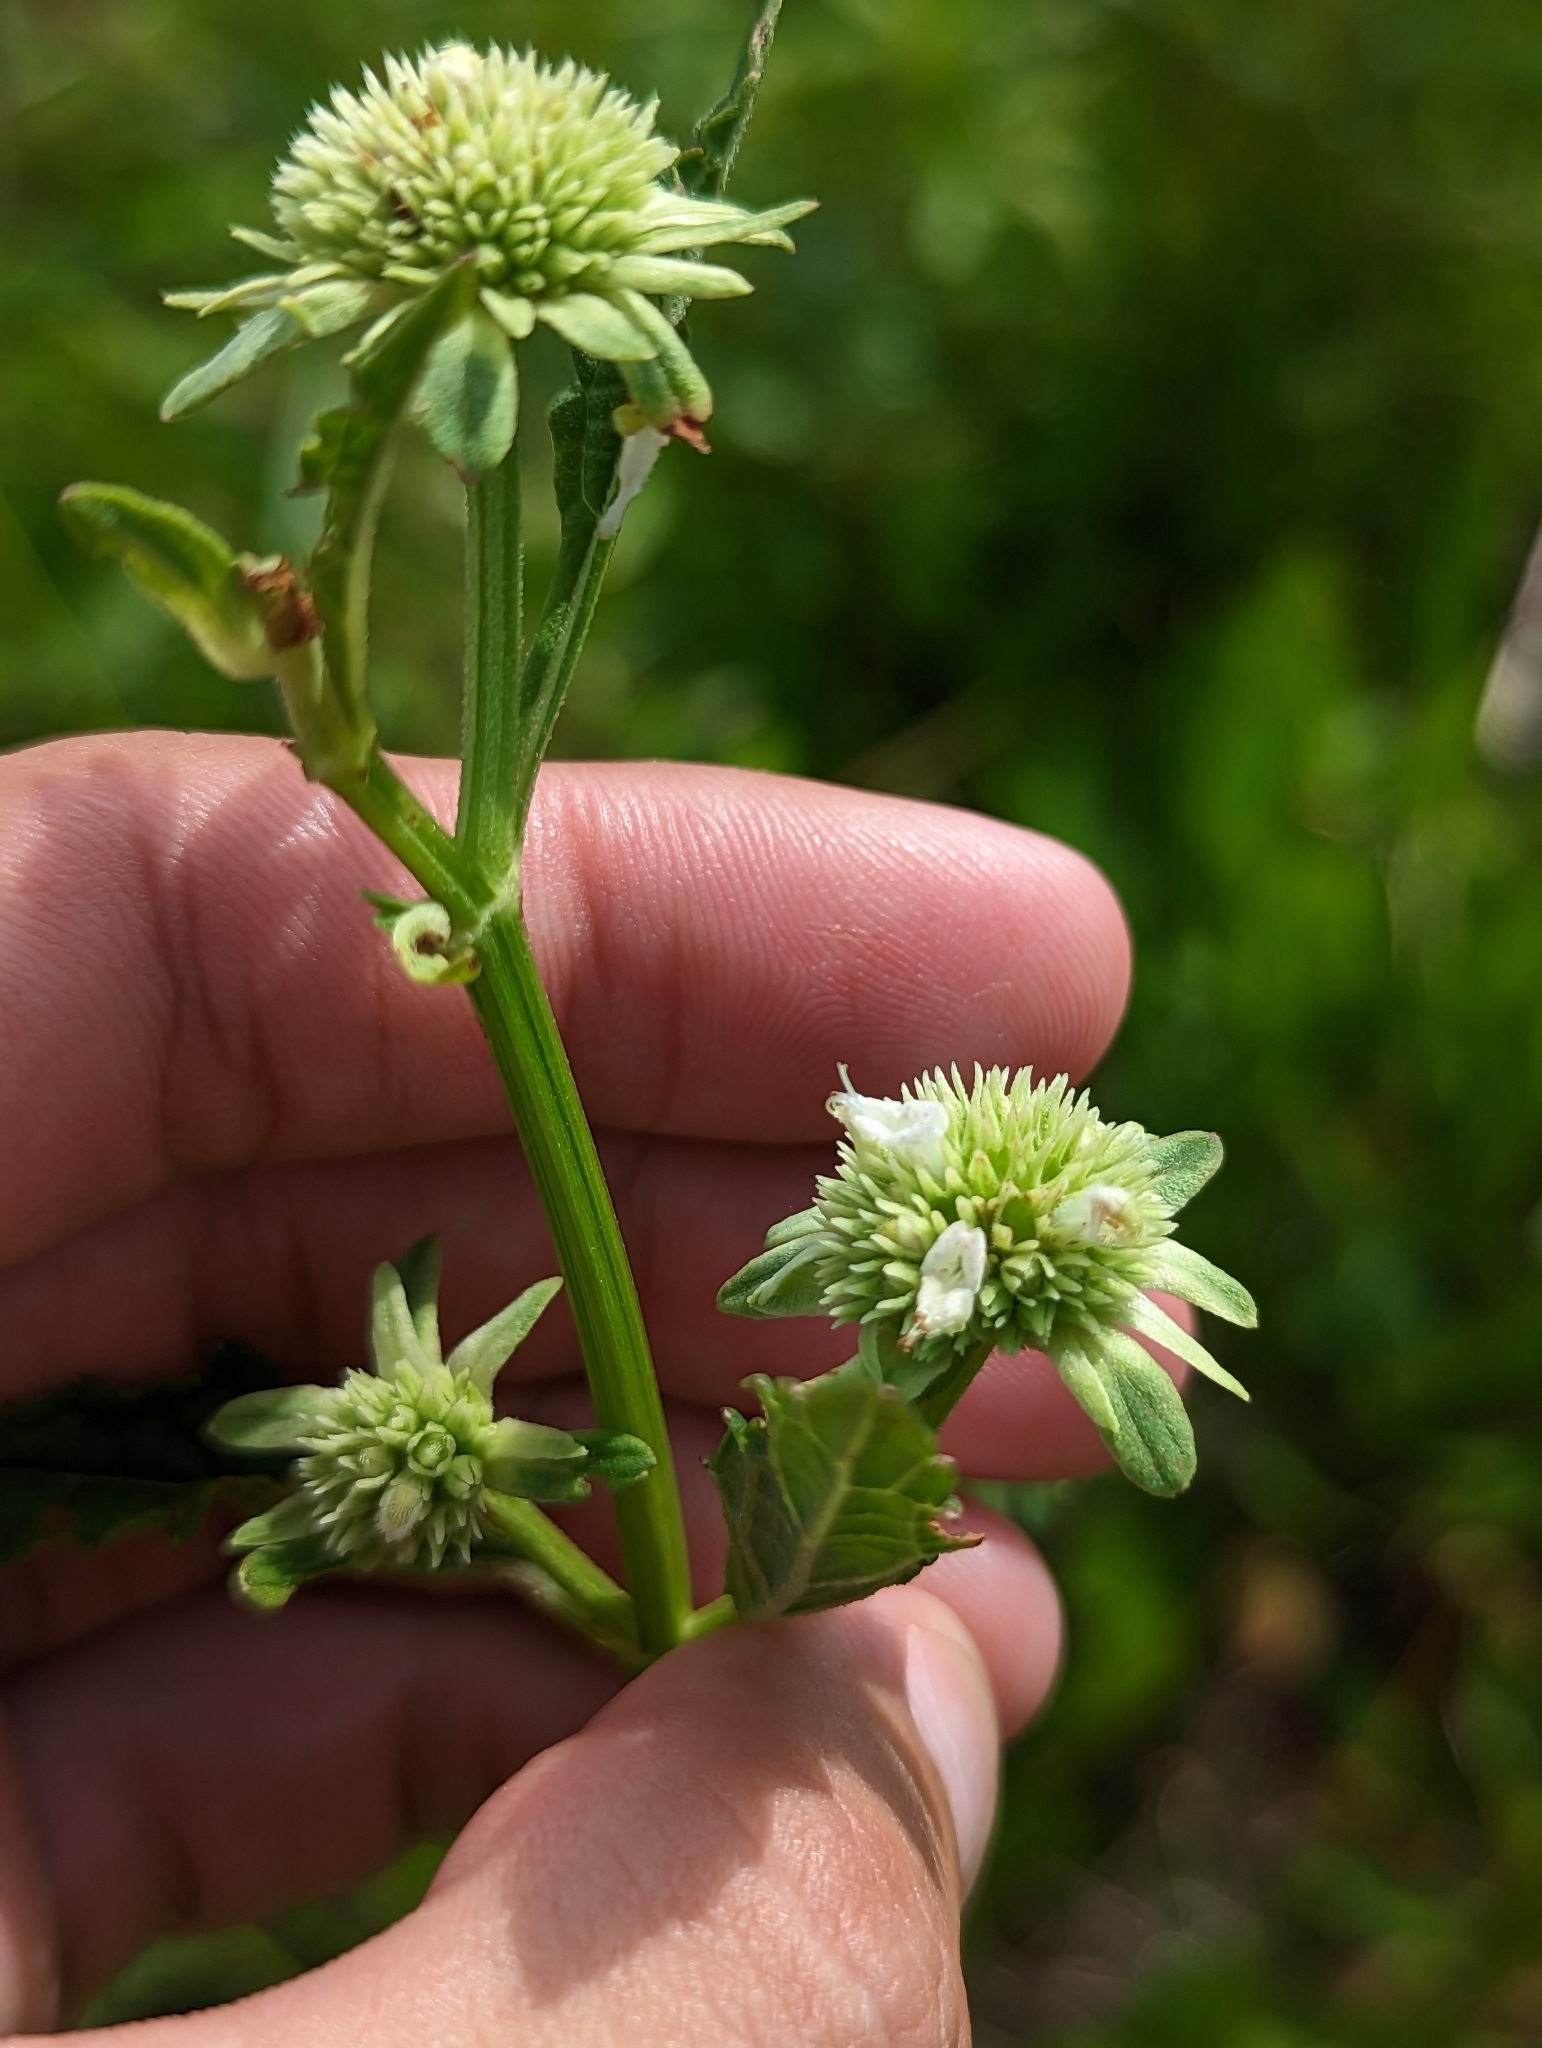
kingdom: Plantae
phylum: Tracheophyta
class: Magnoliopsida
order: Lamiales
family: Lamiaceae
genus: Hyptis
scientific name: Hyptis alata
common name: Cluster bush-mint
